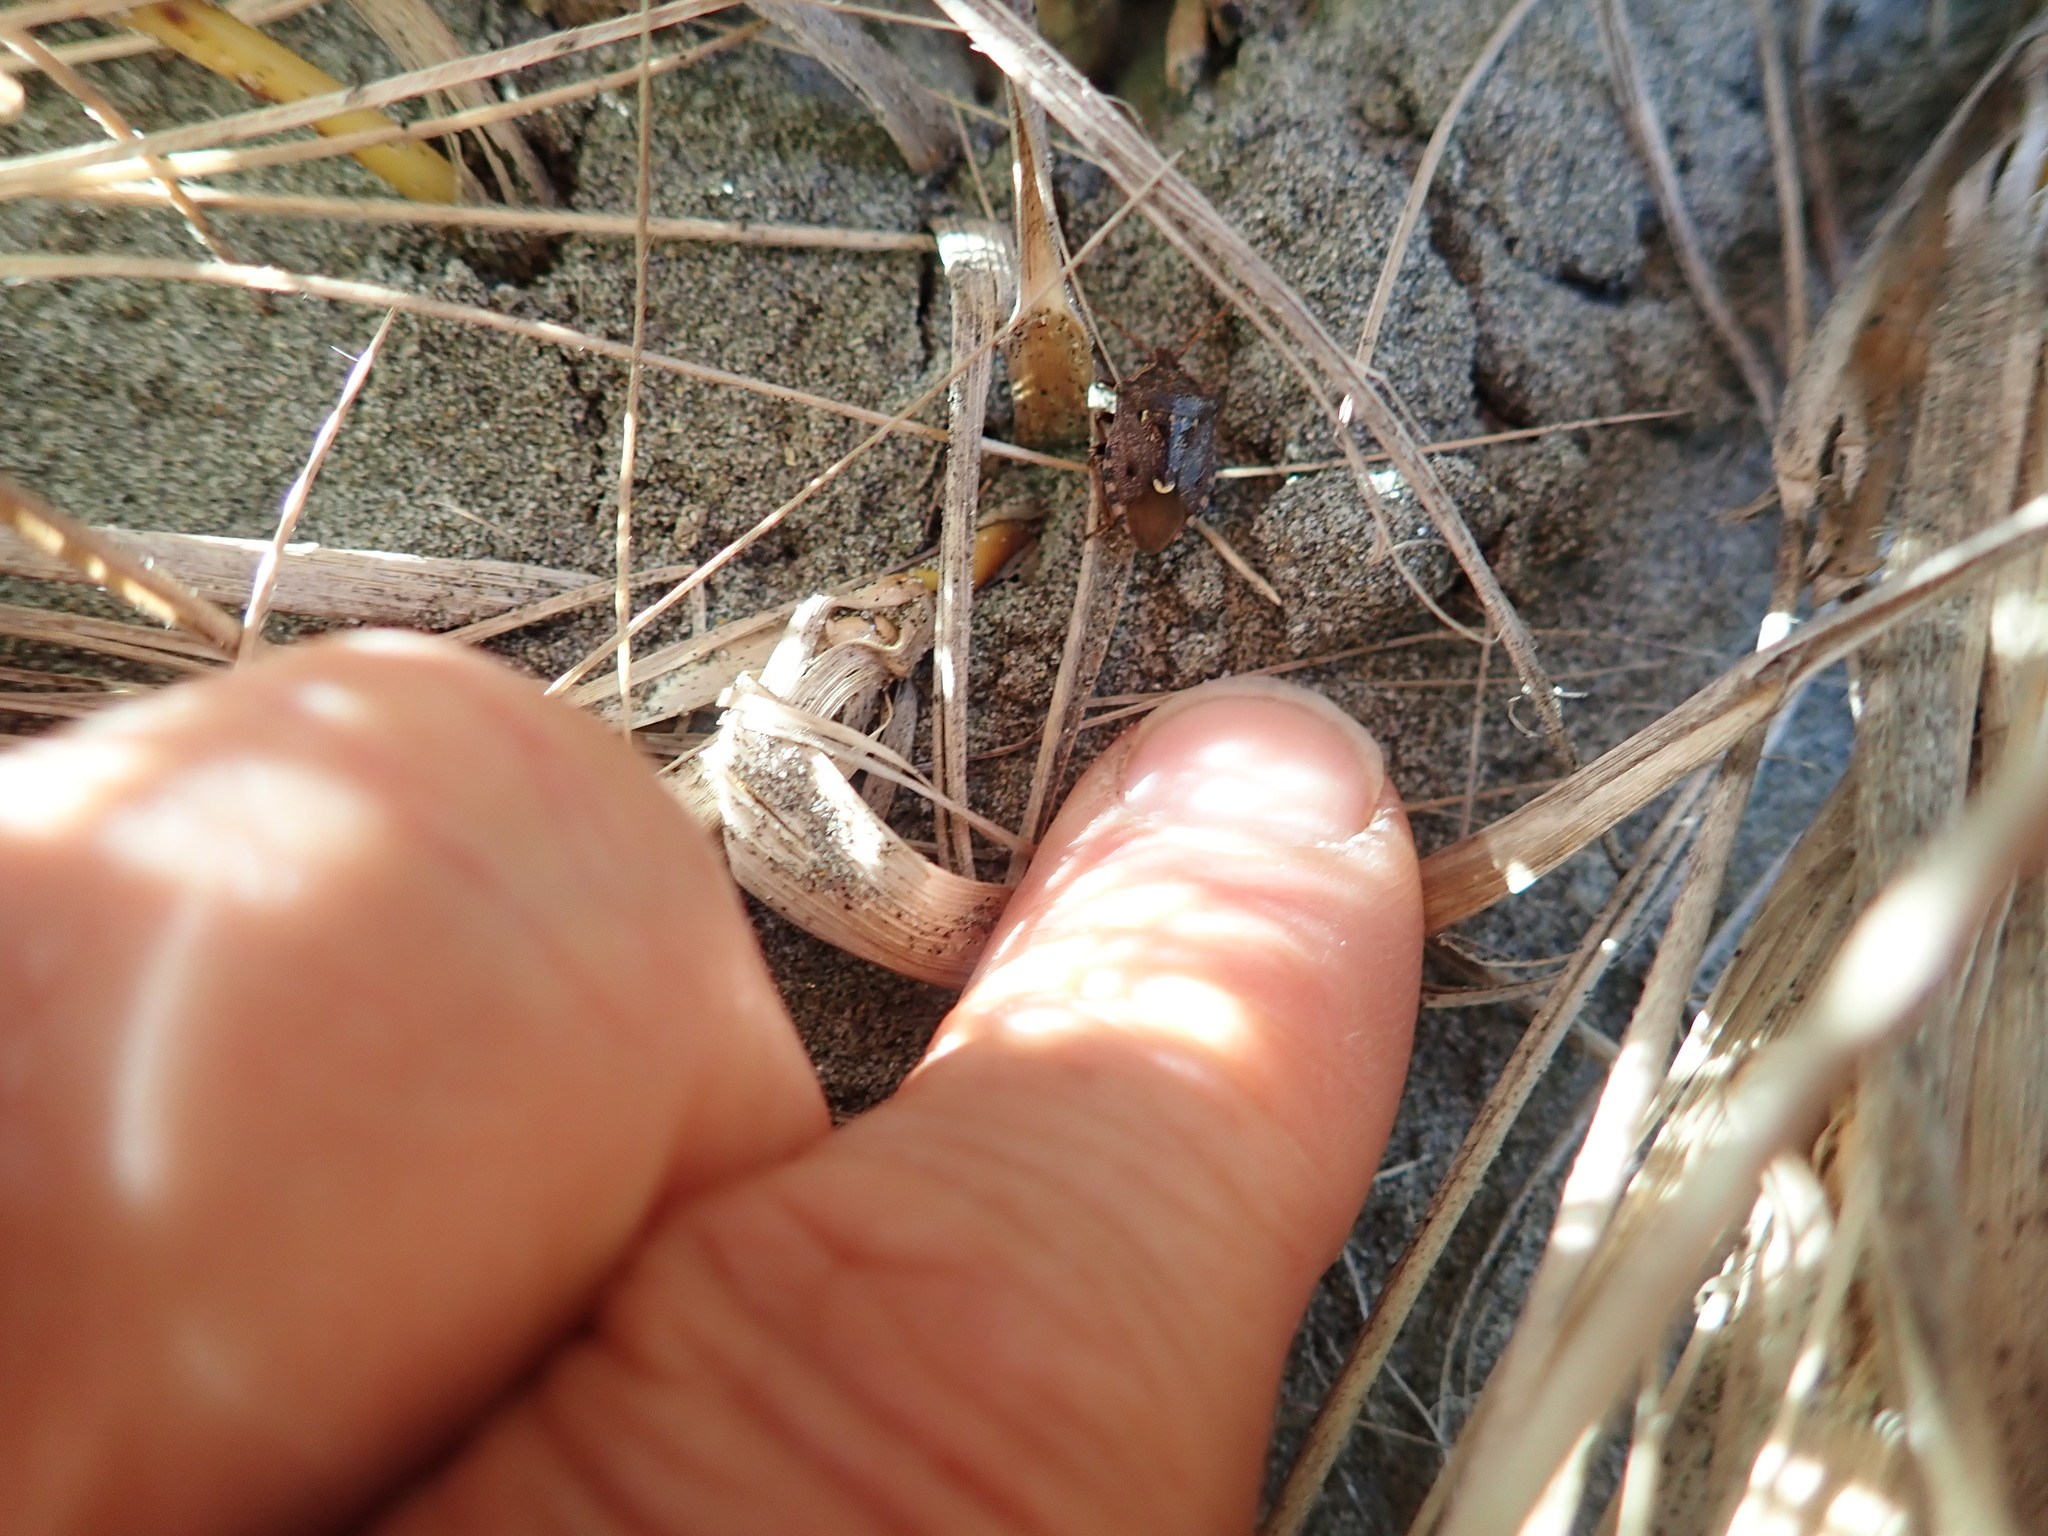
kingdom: Animalia
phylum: Arthropoda
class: Insecta
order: Hemiptera
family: Pentatomidae
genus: Cermatulus
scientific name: Cermatulus nasalis
